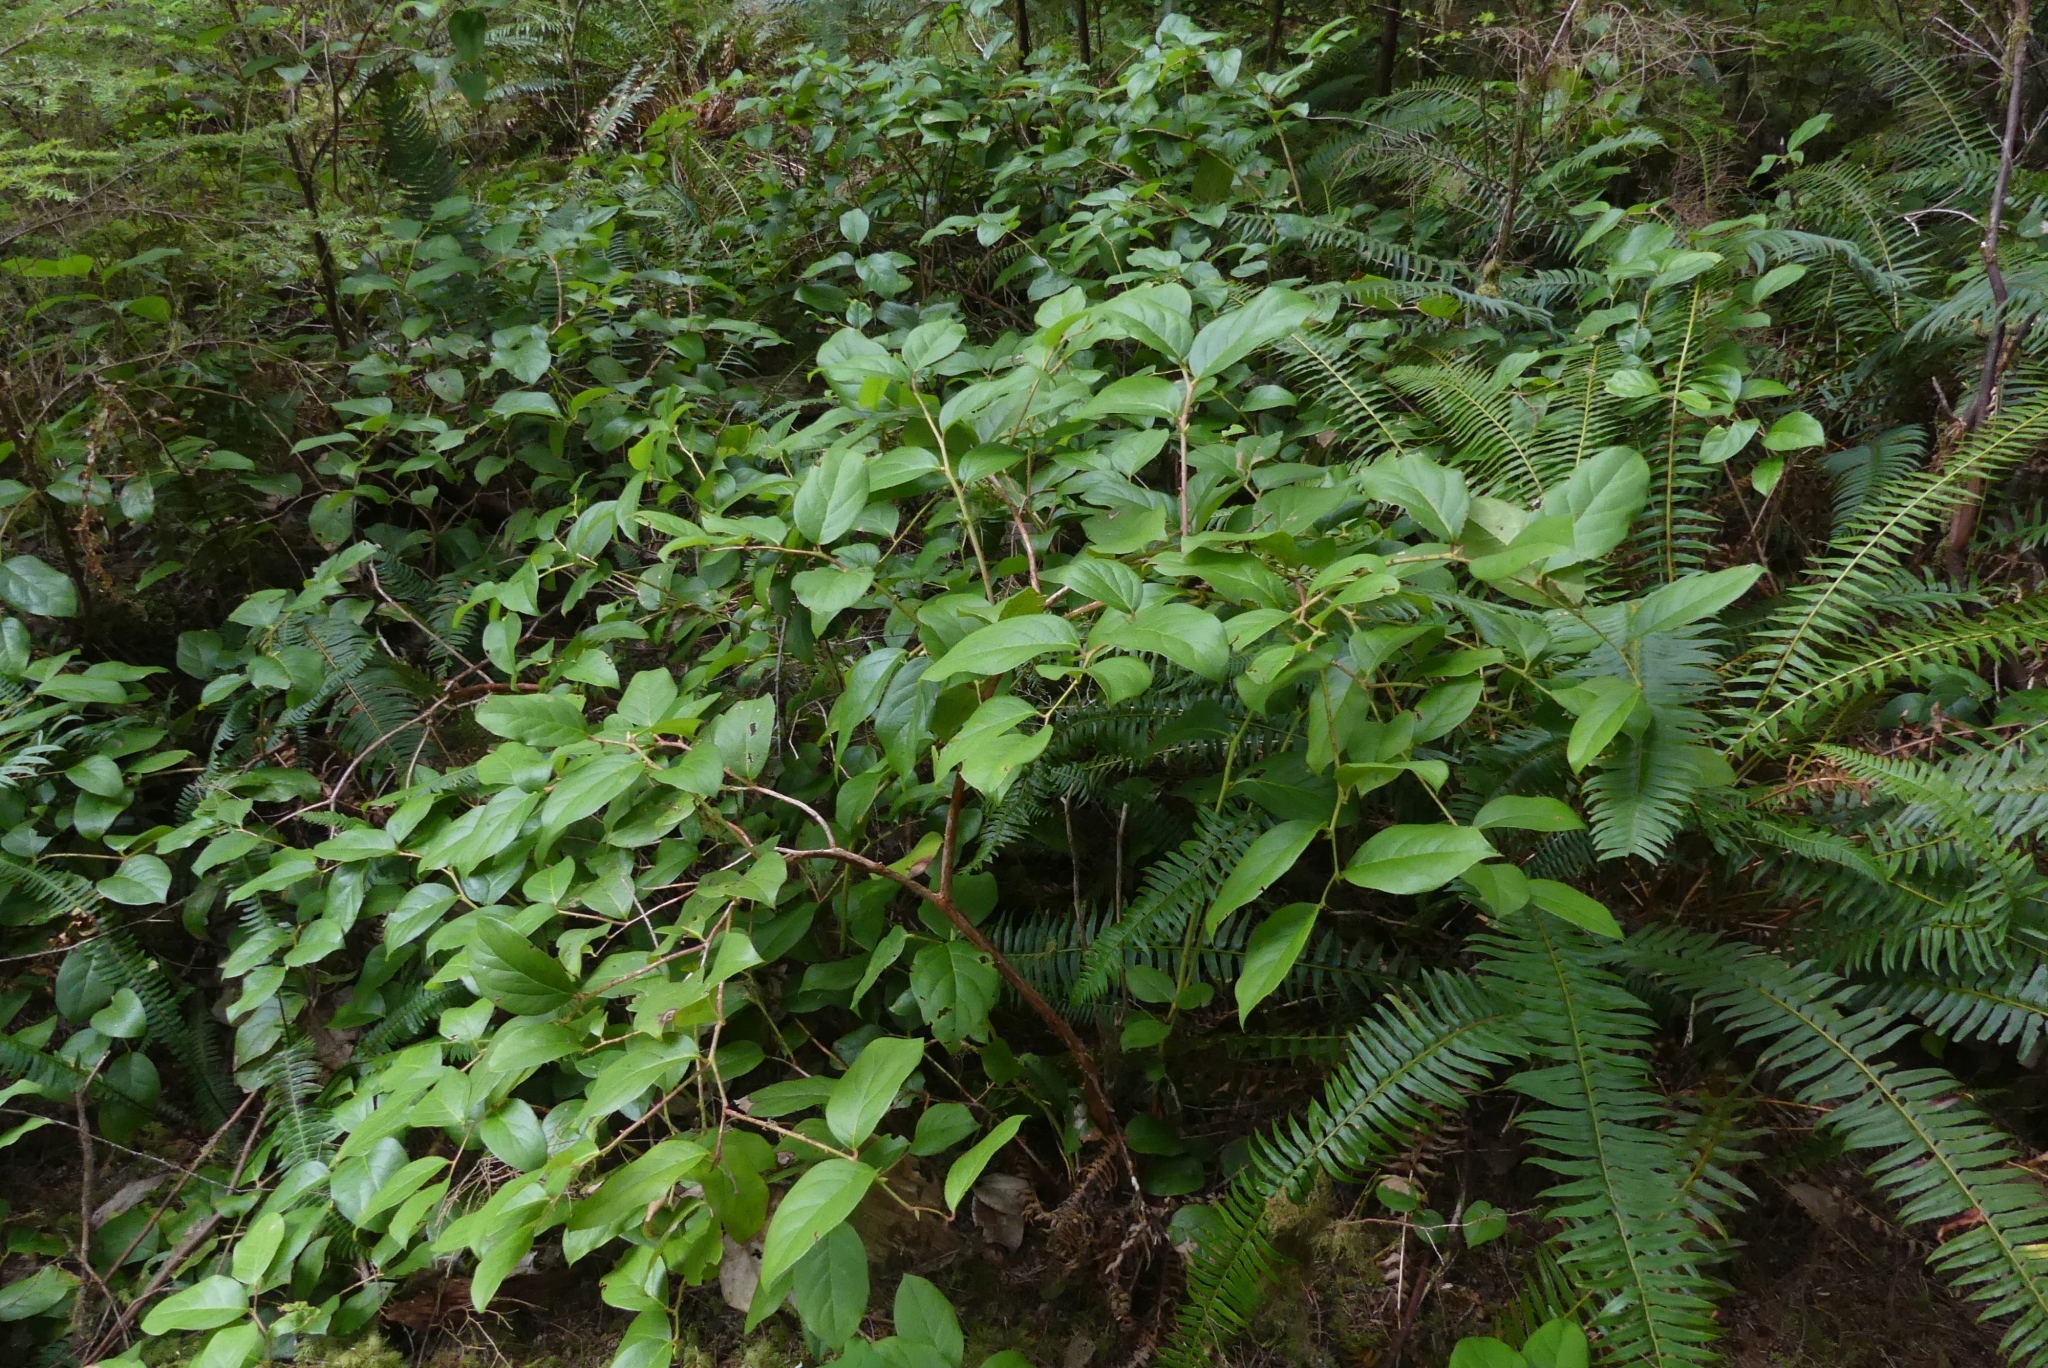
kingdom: Plantae
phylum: Tracheophyta
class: Magnoliopsida
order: Ericales
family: Ericaceae
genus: Gaultheria
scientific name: Gaultheria shallon
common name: Shallon
